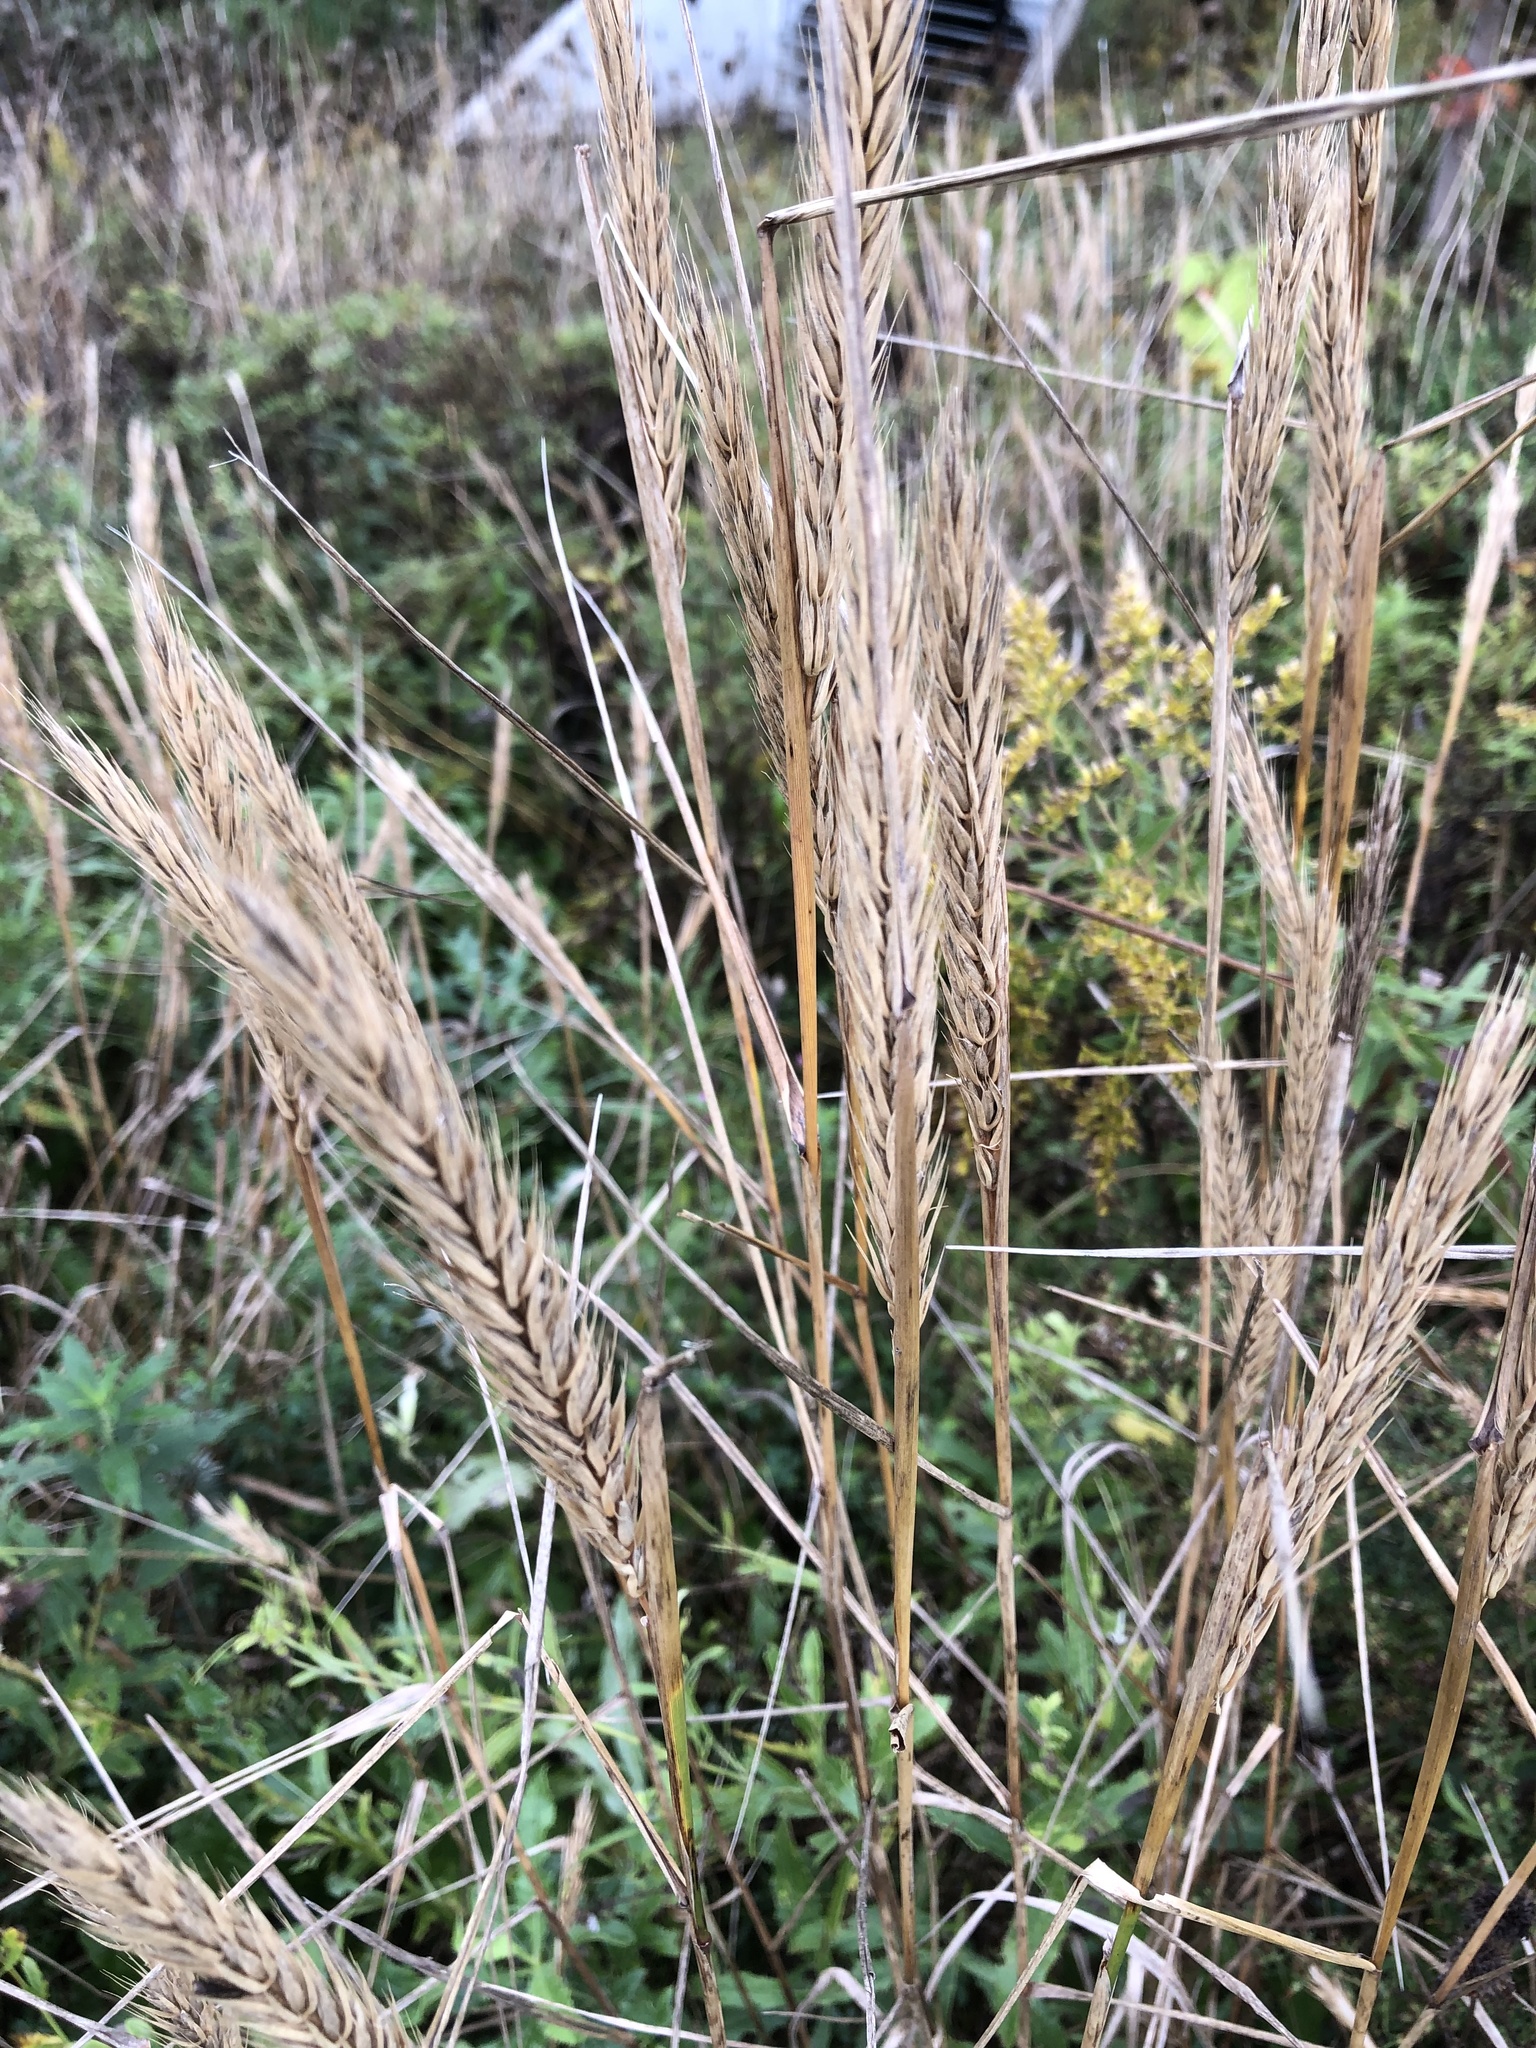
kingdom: Plantae
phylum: Tracheophyta
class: Liliopsida
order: Poales
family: Poaceae
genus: Elymus
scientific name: Elymus virginicus
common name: Common eastern wildrye
